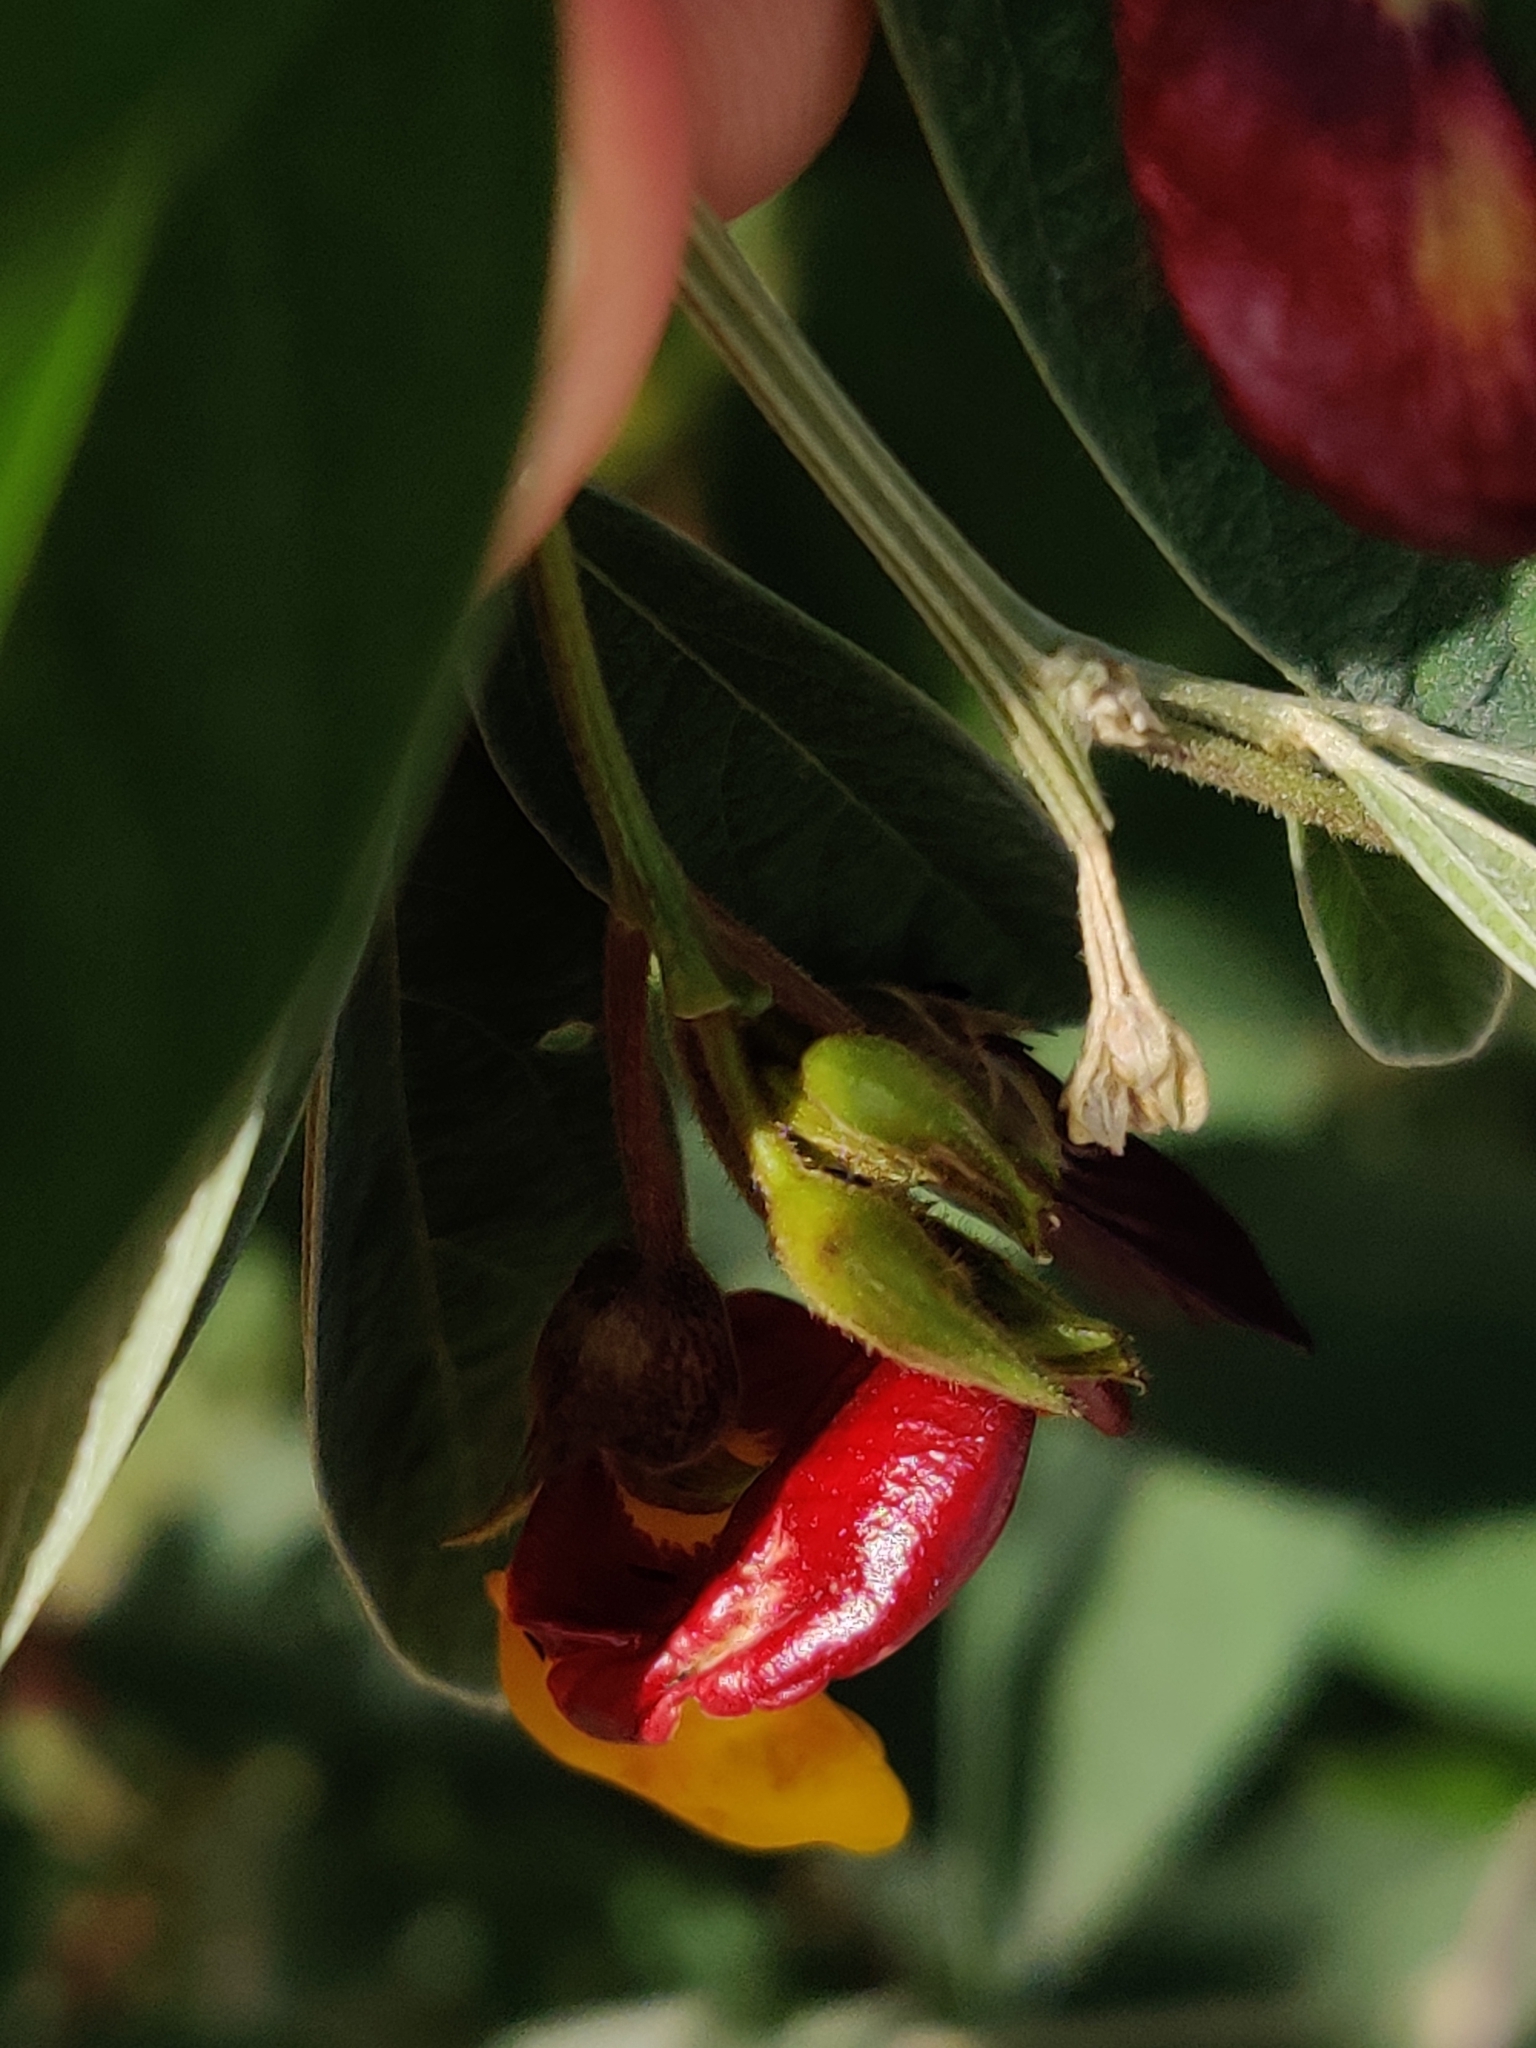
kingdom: Plantae
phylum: Tracheophyta
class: Magnoliopsida
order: Fabales
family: Fabaceae
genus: Cajanus
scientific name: Cajanus cajan
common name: Pigeonpea
